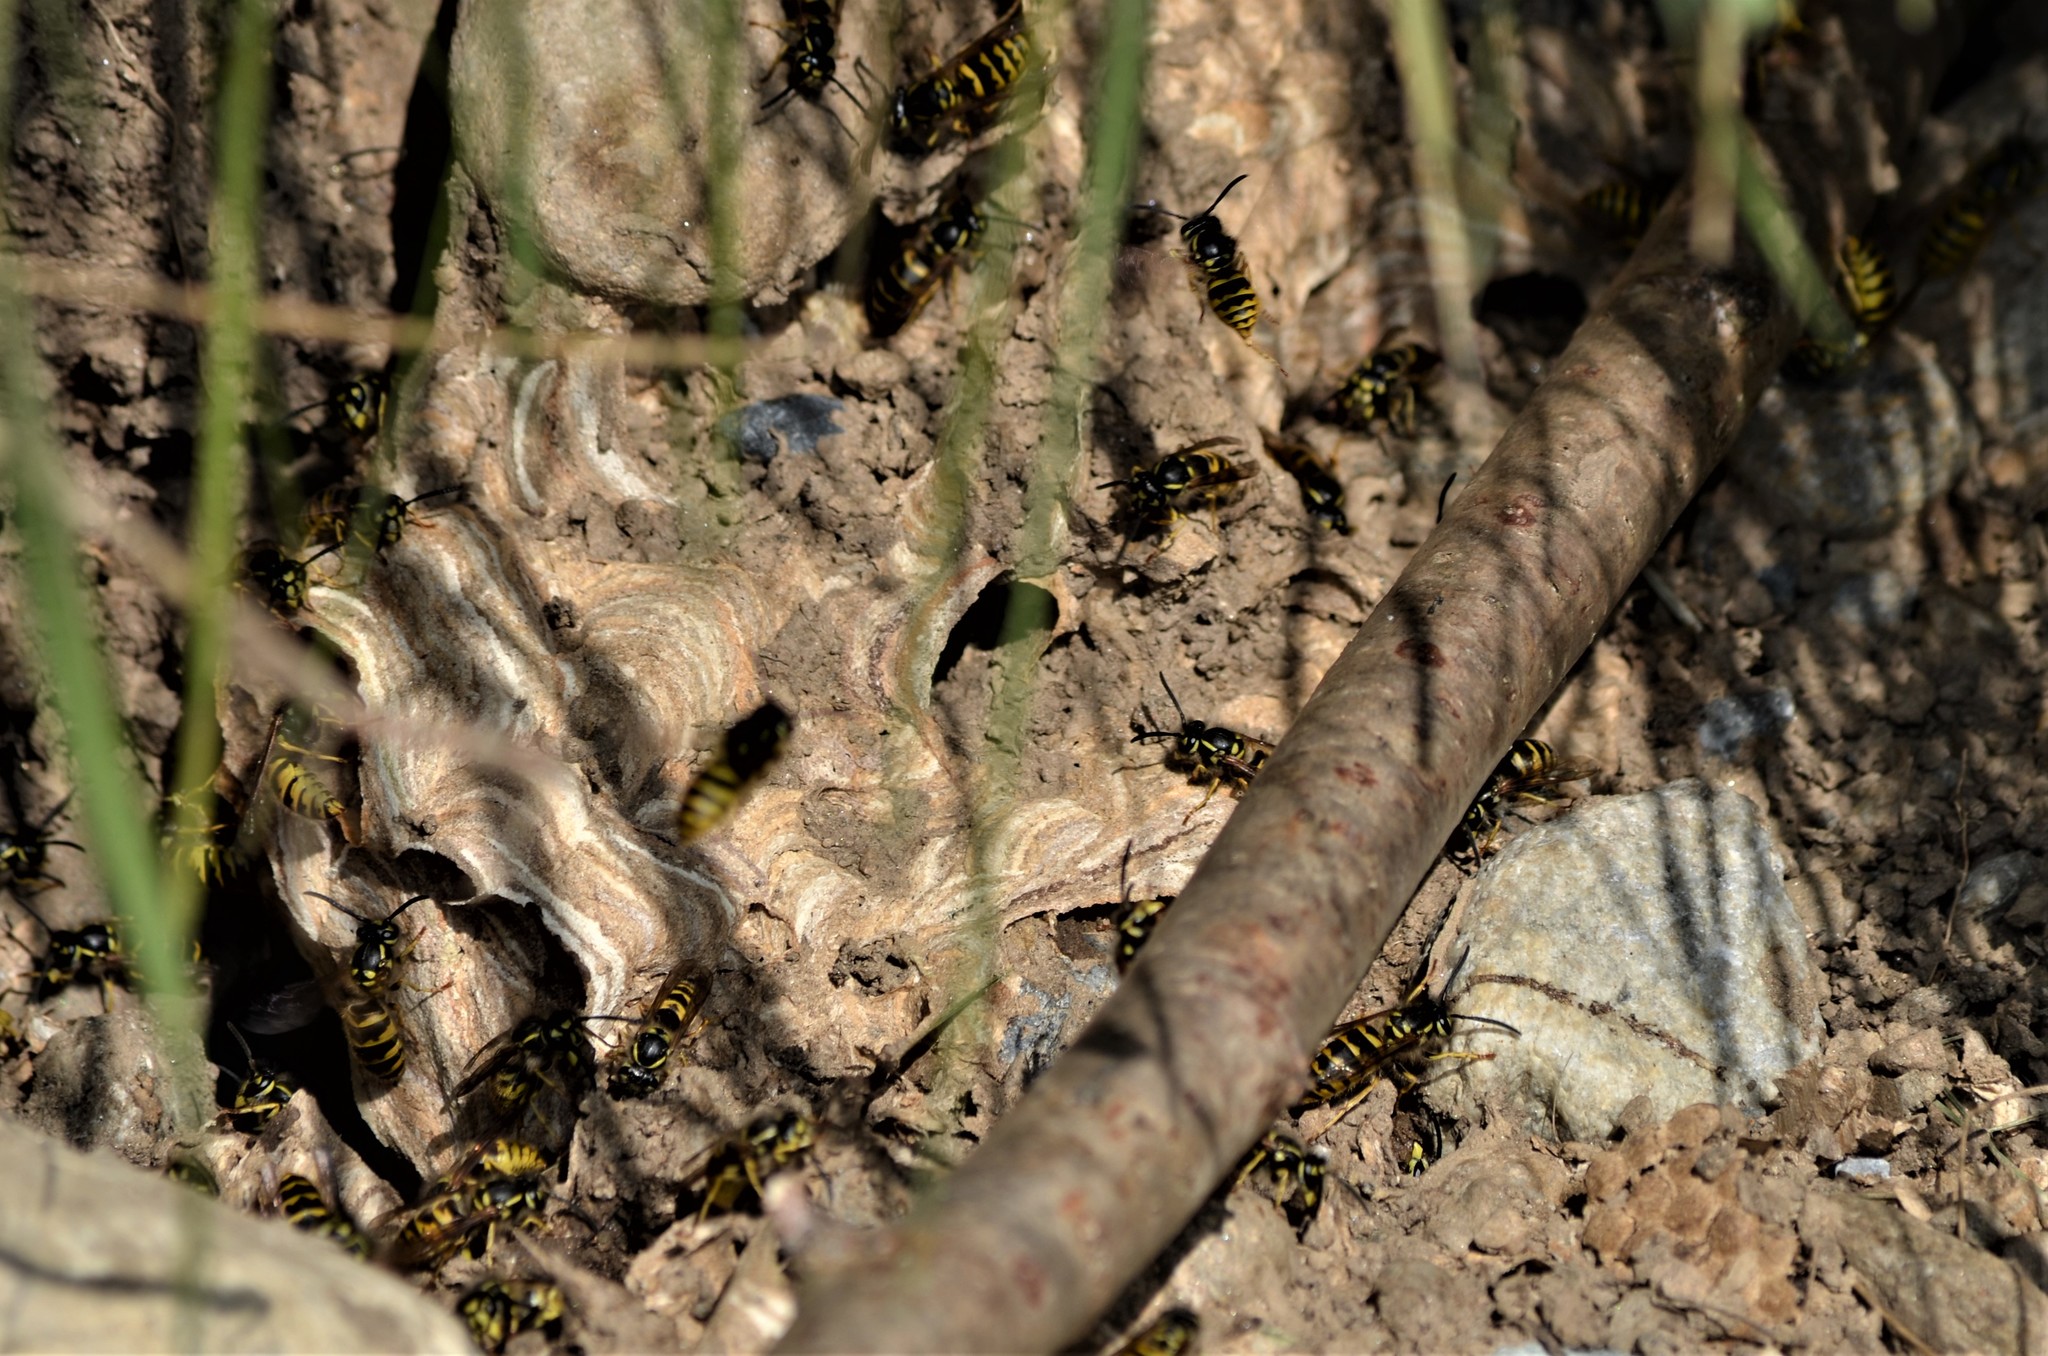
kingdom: Animalia
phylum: Arthropoda
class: Insecta
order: Hymenoptera
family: Vespidae
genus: Vespula
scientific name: Vespula vulgaris
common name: Common wasp
